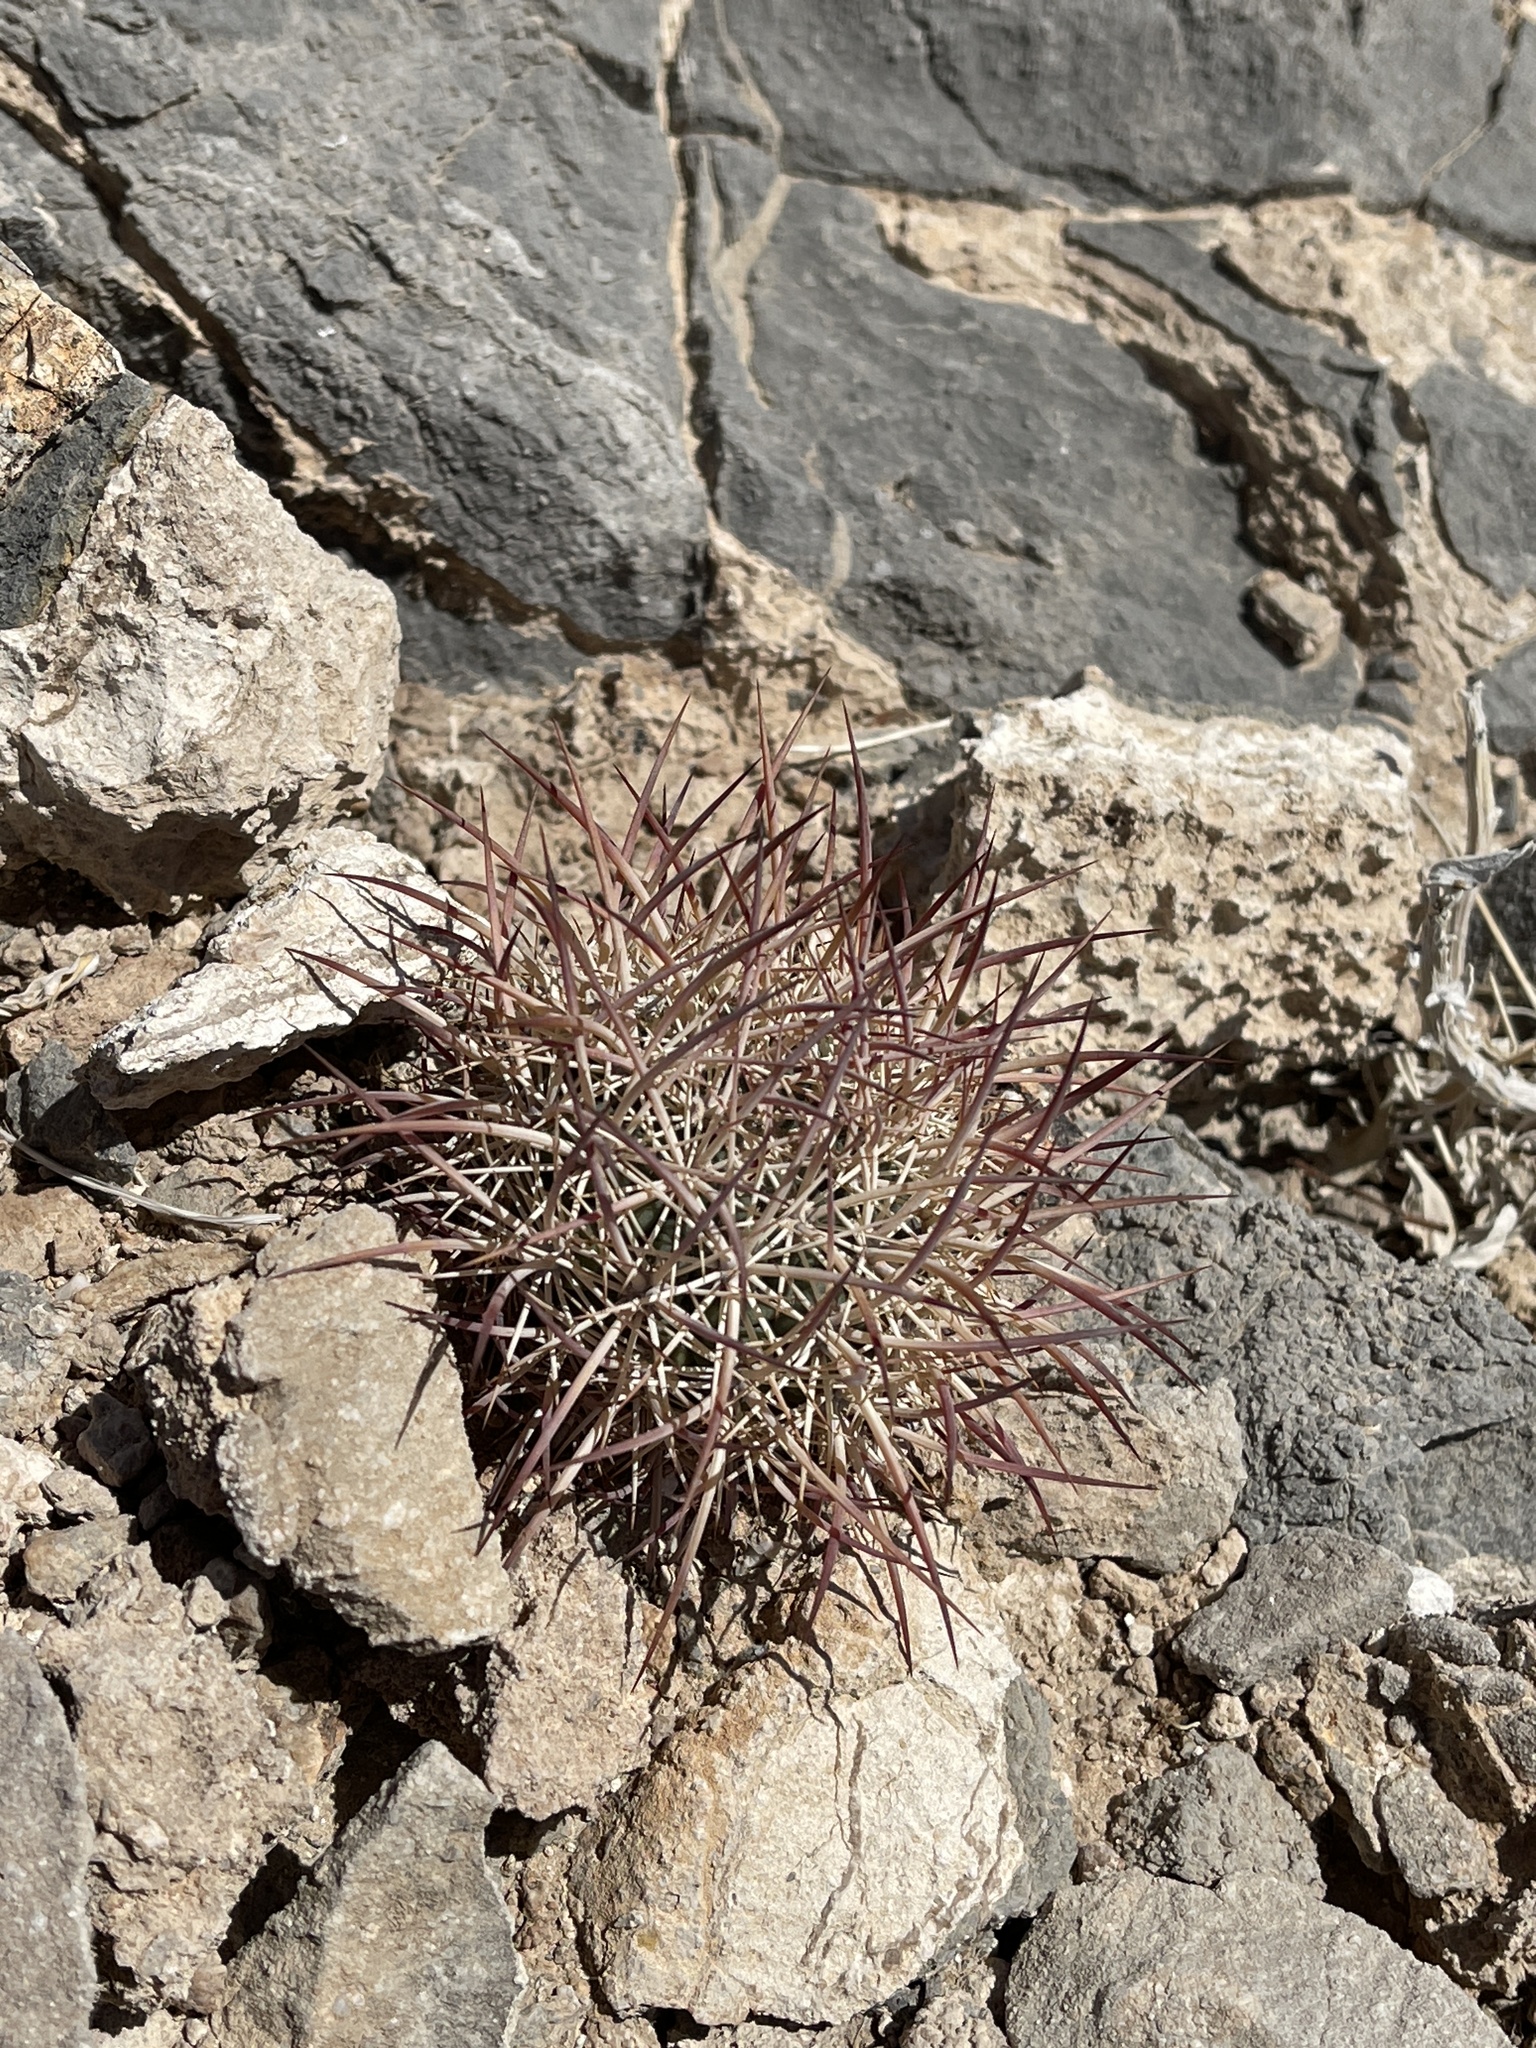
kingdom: Plantae
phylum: Tracheophyta
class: Magnoliopsida
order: Caryophyllales
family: Cactaceae
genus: Sclerocactus
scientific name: Sclerocactus johnsonii
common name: Eight-spine fishhook cactus
